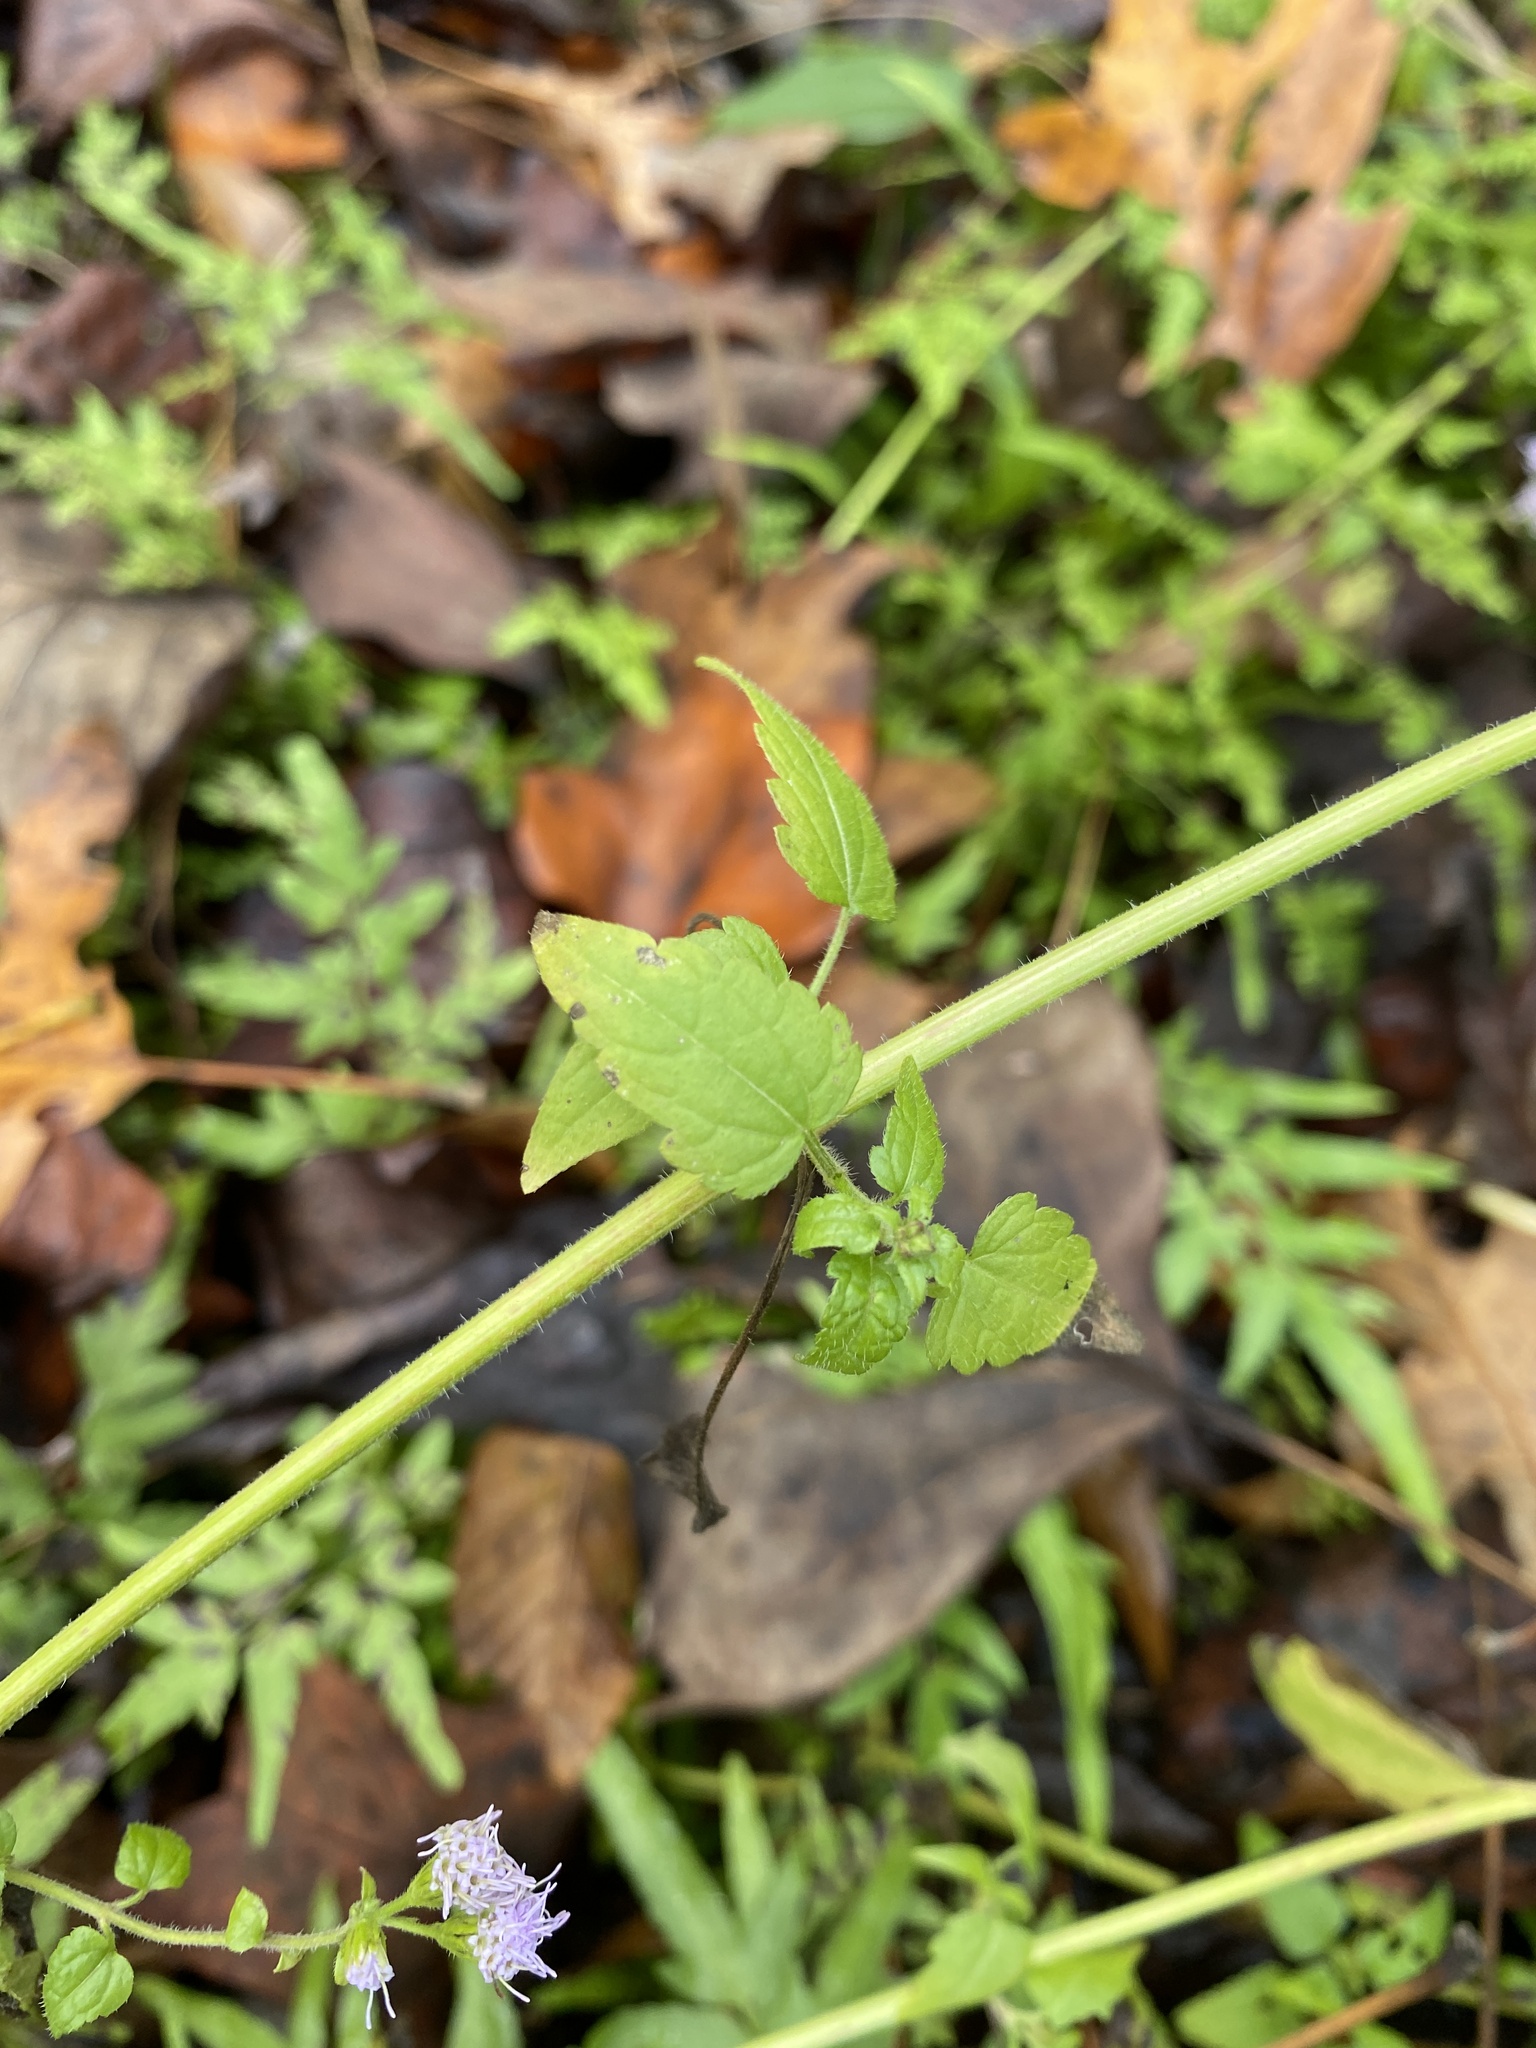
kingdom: Plantae
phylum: Tracheophyta
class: Magnoliopsida
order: Asterales
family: Asteraceae
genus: Fleischmannia
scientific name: Fleischmannia incarnata
